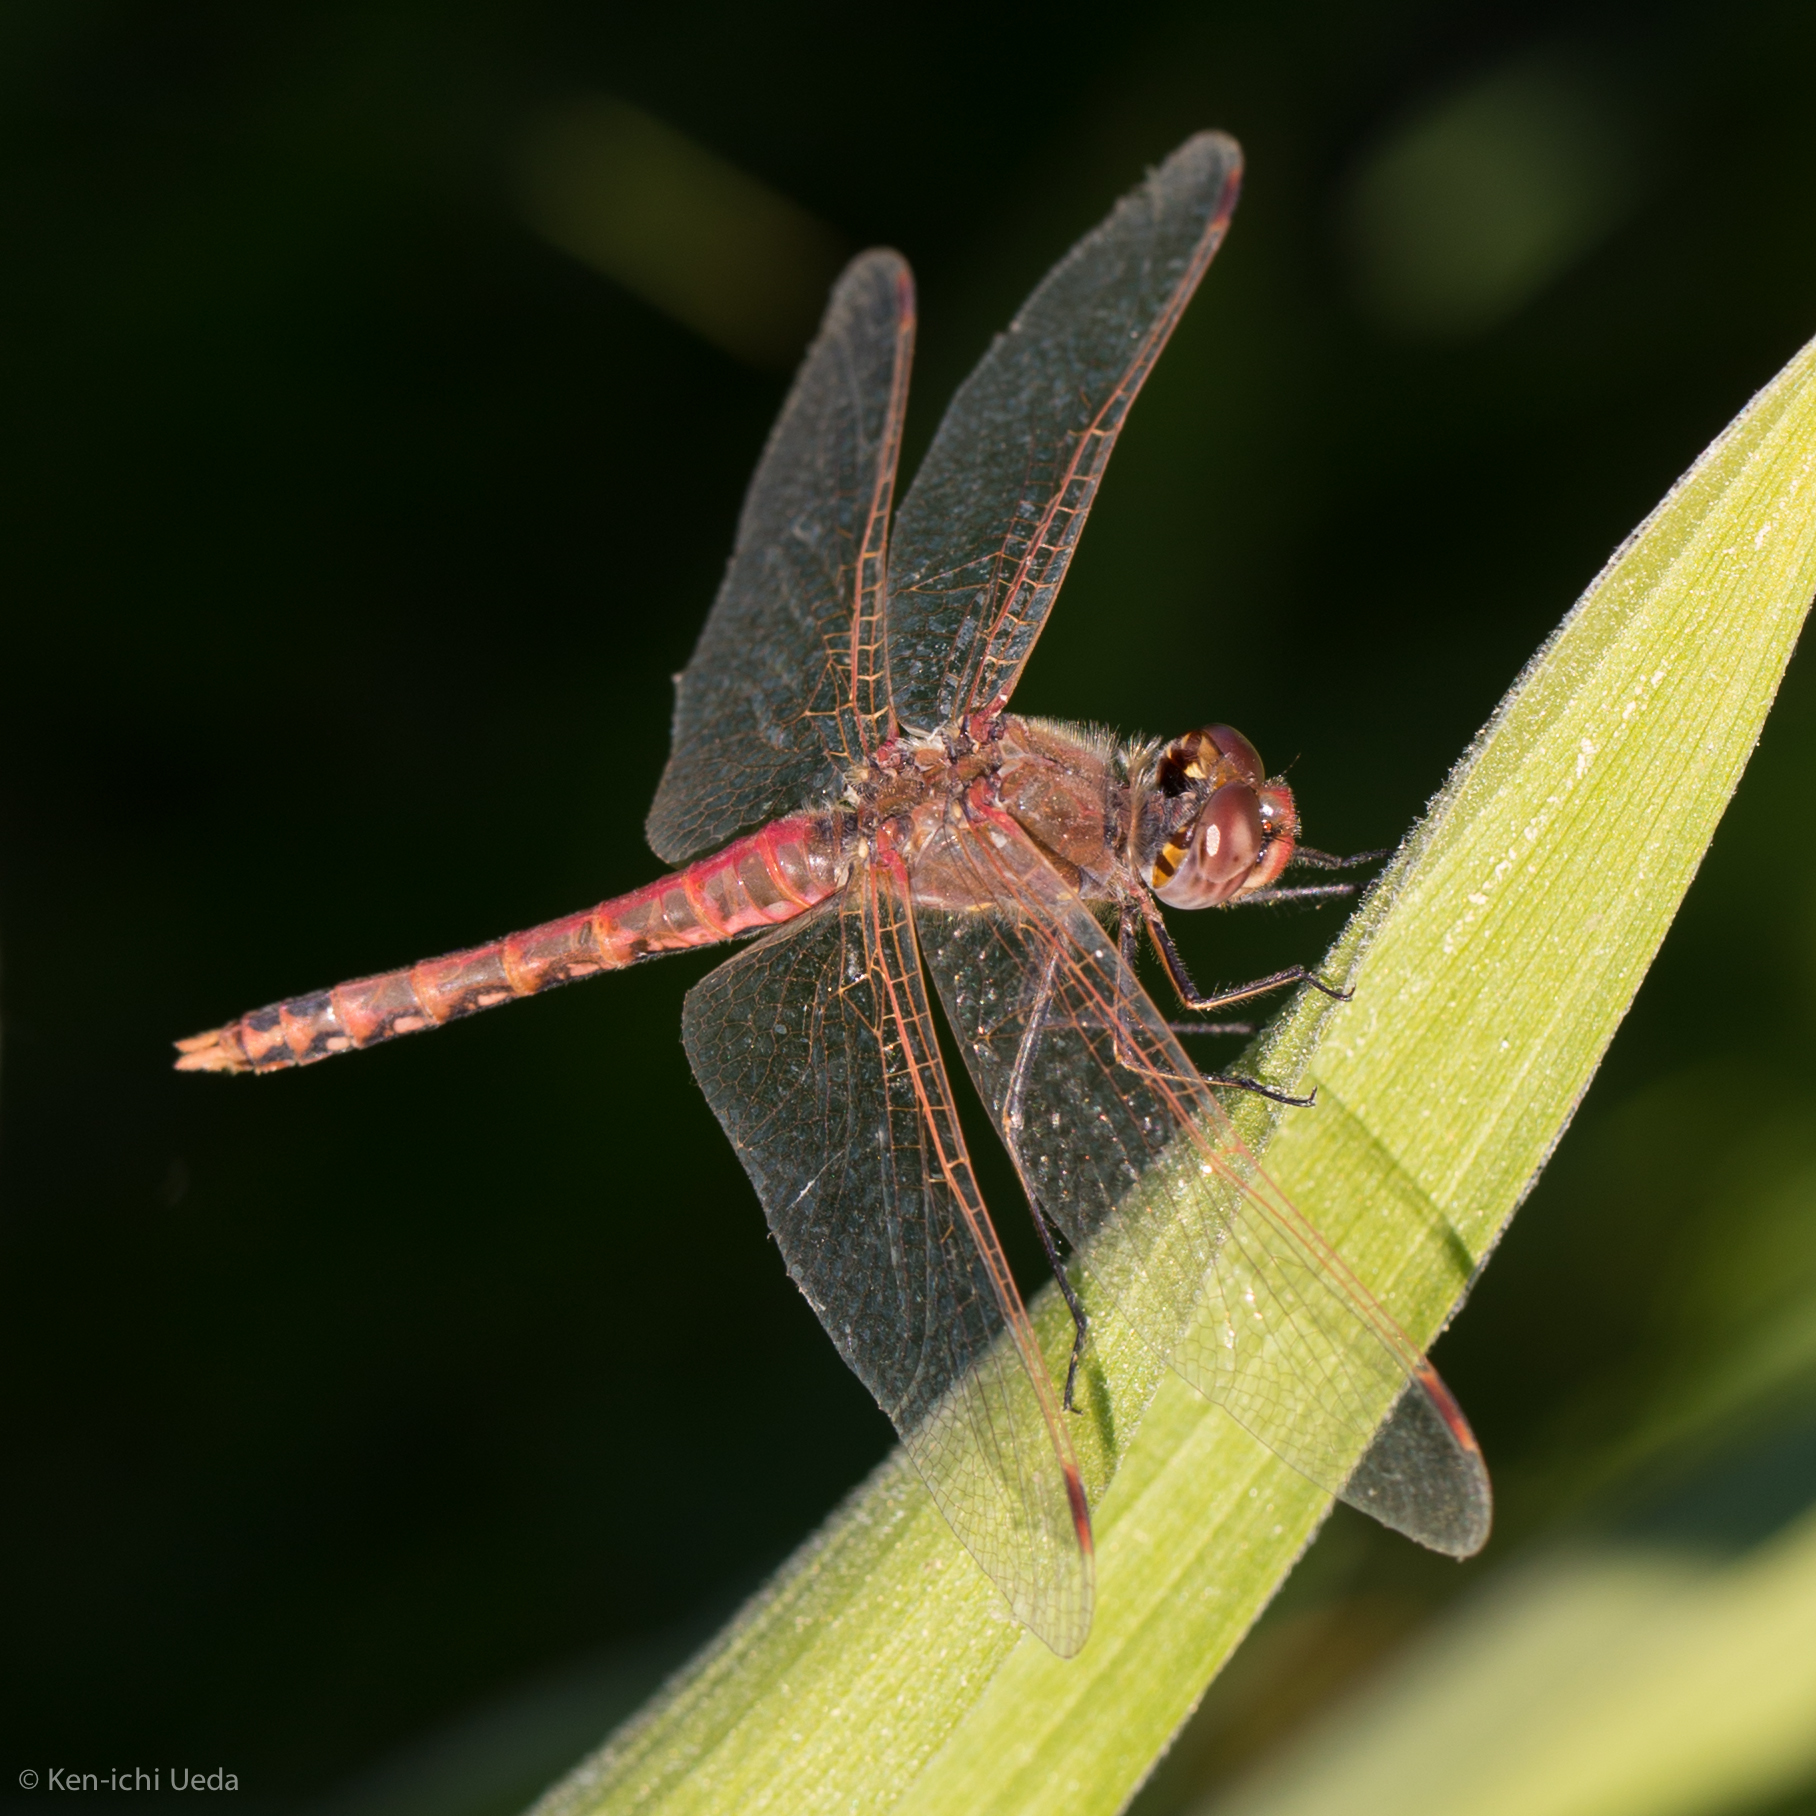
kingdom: Animalia
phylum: Arthropoda
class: Insecta
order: Odonata
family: Libellulidae
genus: Sympetrum
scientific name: Sympetrum corruptum
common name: Variegated meadowhawk
